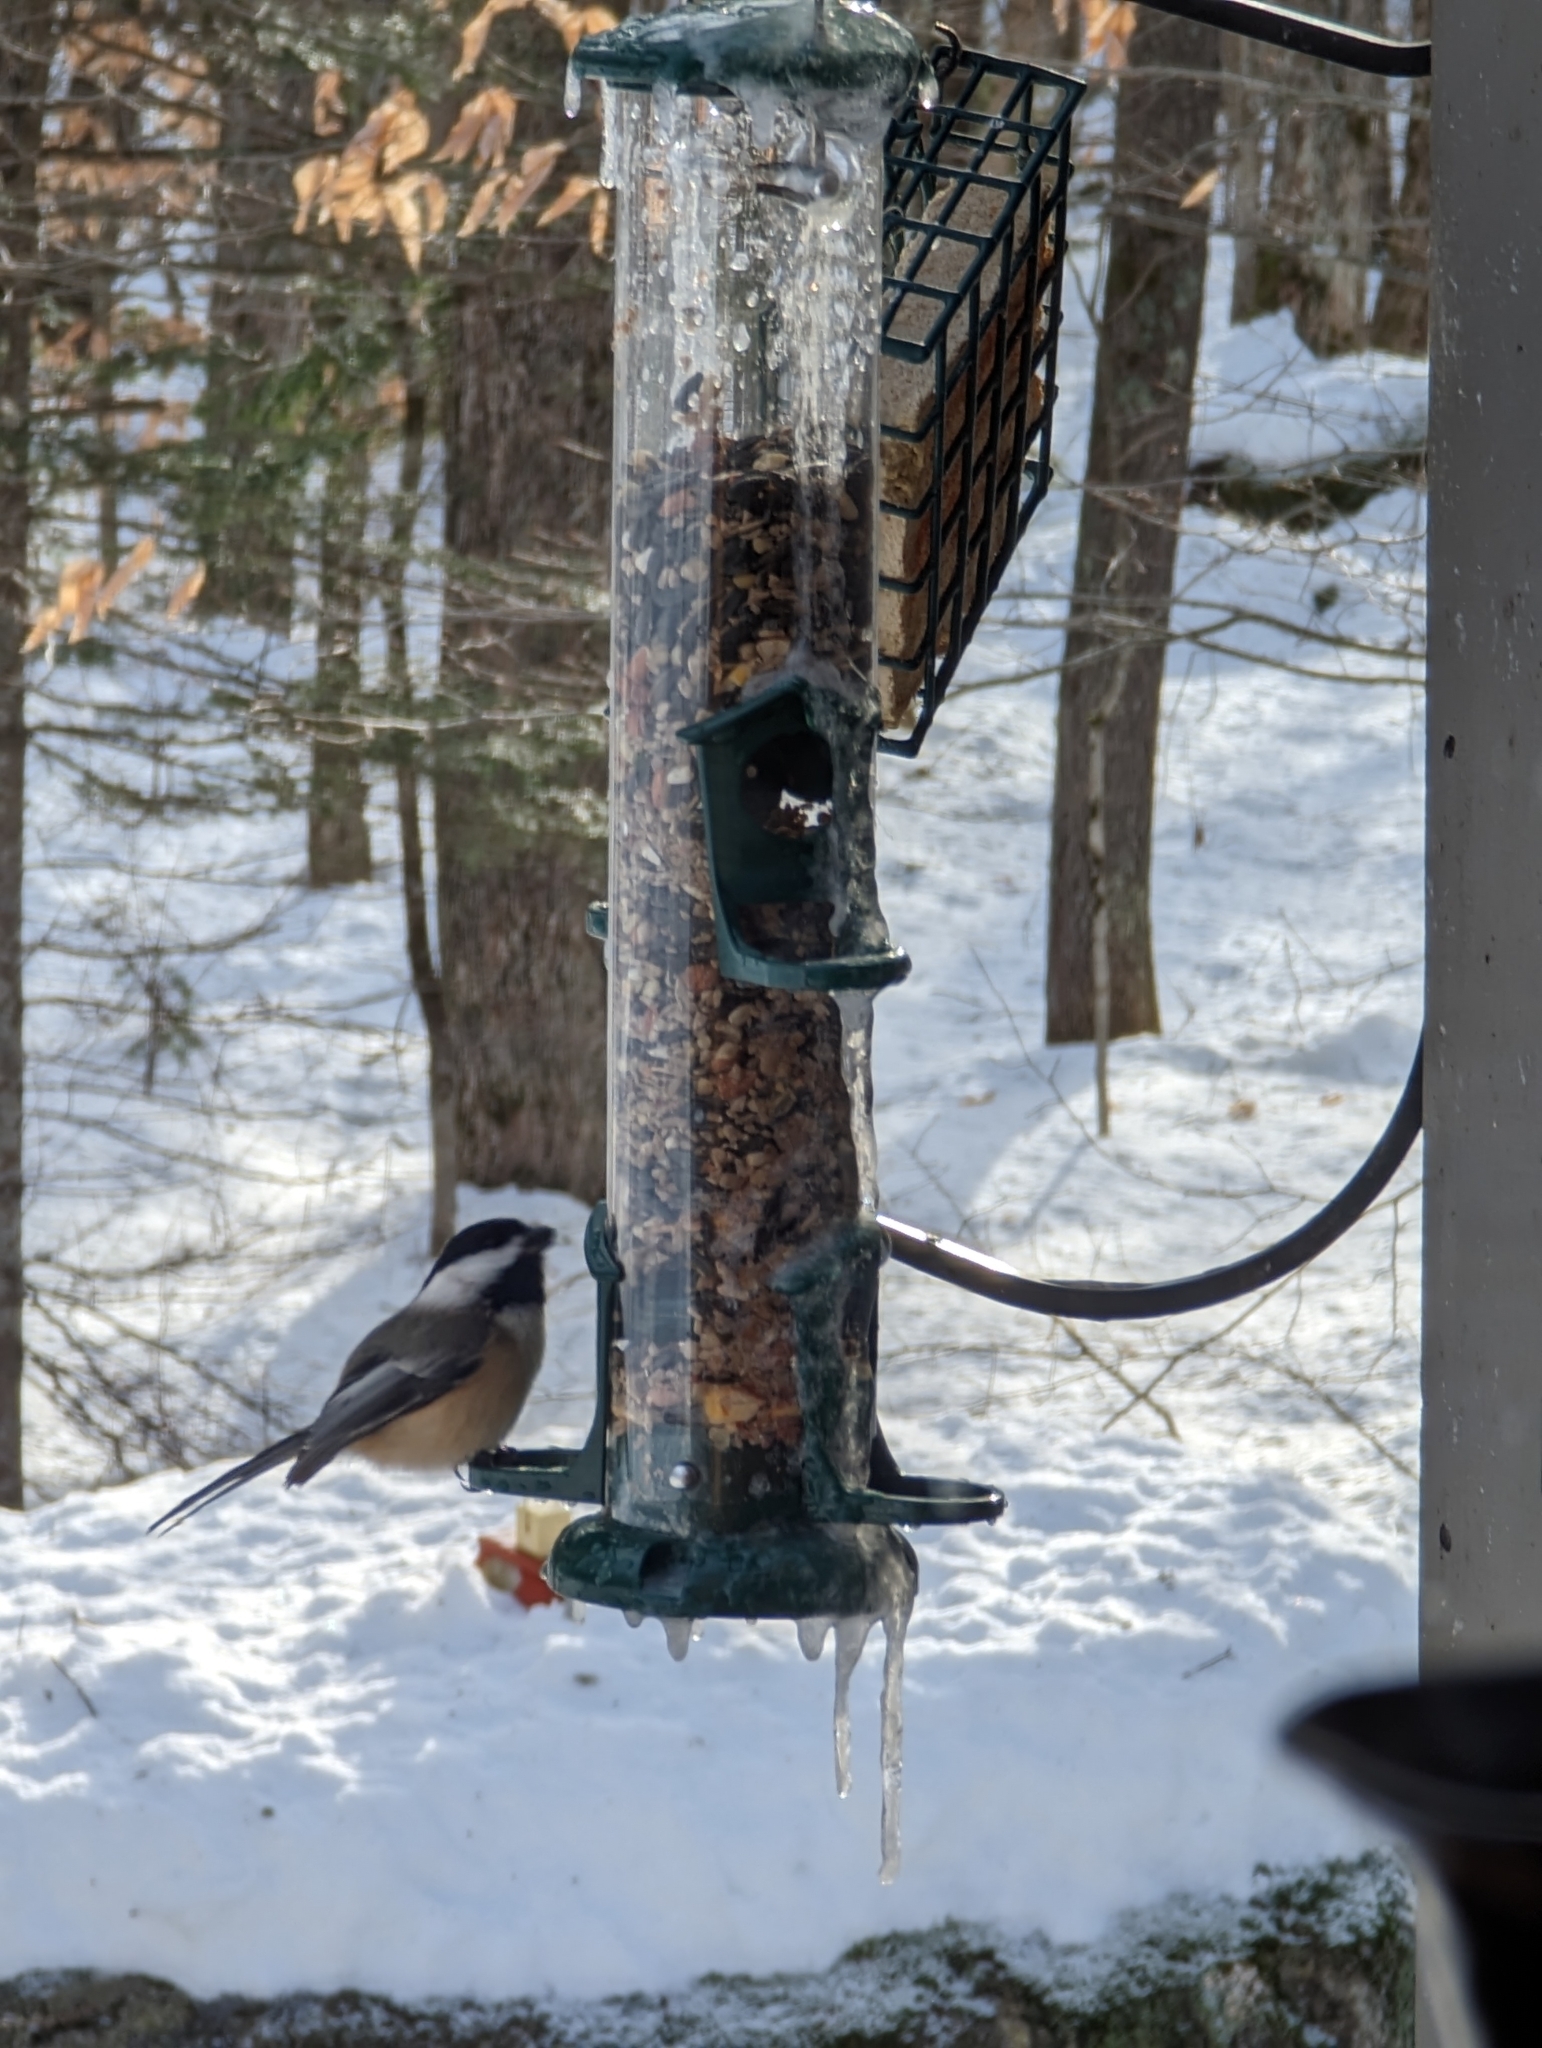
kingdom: Animalia
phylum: Chordata
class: Aves
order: Passeriformes
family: Paridae
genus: Poecile
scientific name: Poecile atricapillus
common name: Black-capped chickadee
